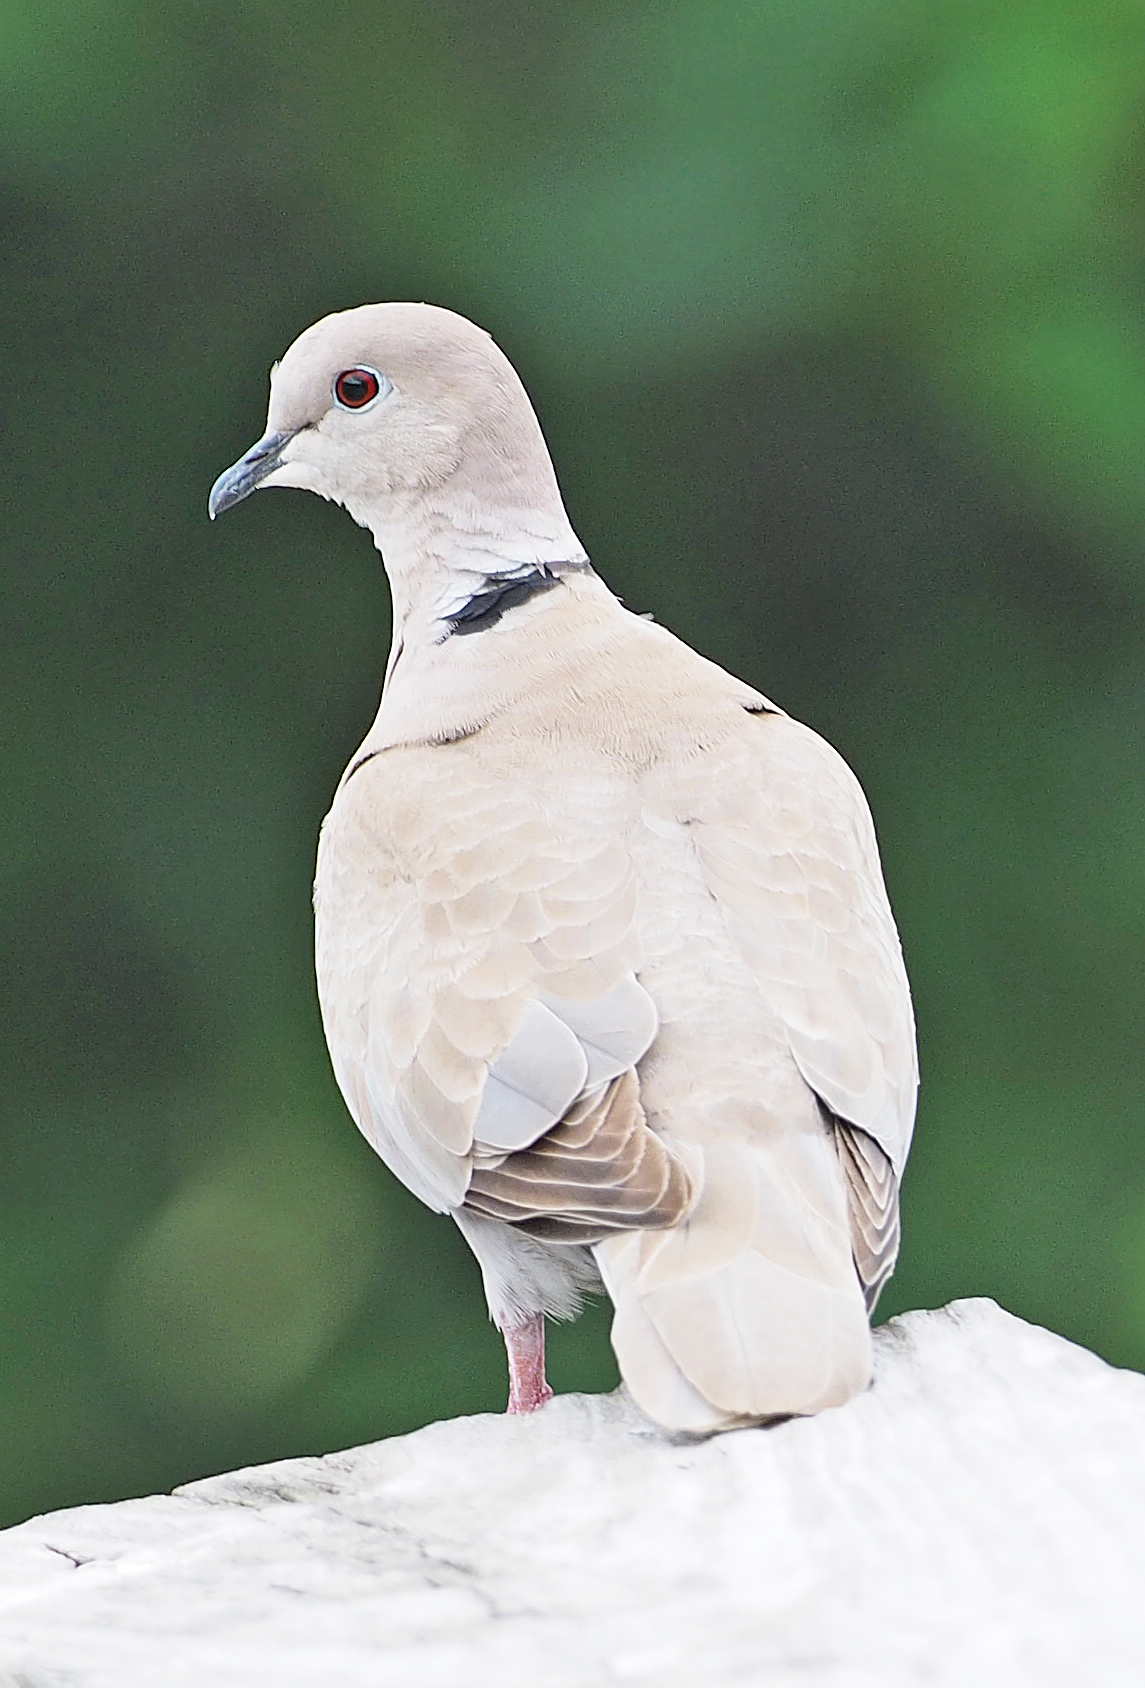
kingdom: Animalia
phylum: Chordata
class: Aves
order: Columbiformes
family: Columbidae
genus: Streptopelia
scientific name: Streptopelia decaocto
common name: Eurasian collared dove
